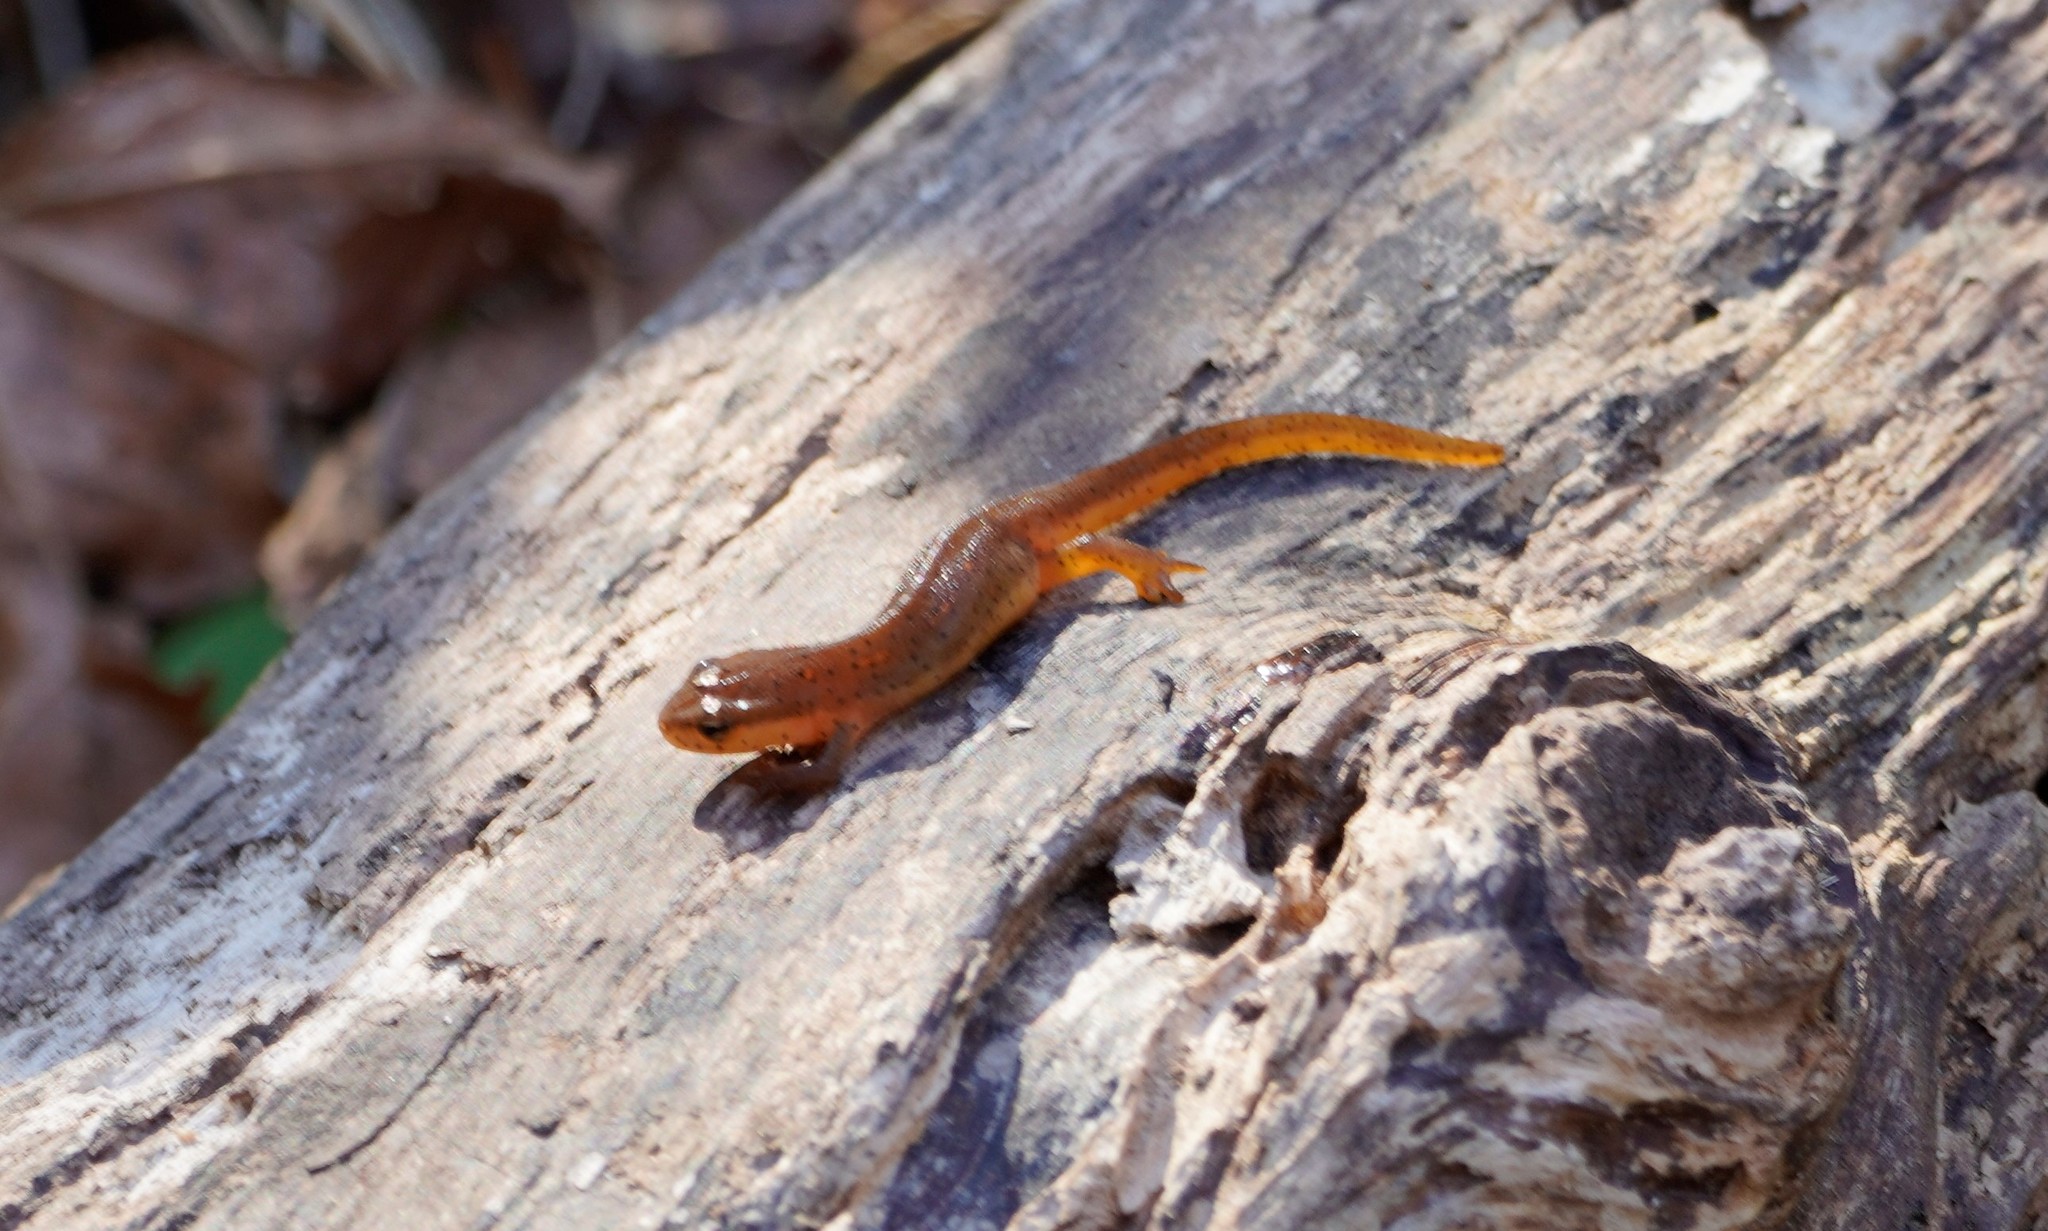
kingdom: Animalia
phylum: Chordata
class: Amphibia
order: Caudata
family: Salamandridae
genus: Notophthalmus
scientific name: Notophthalmus viridescens
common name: Eastern newt
